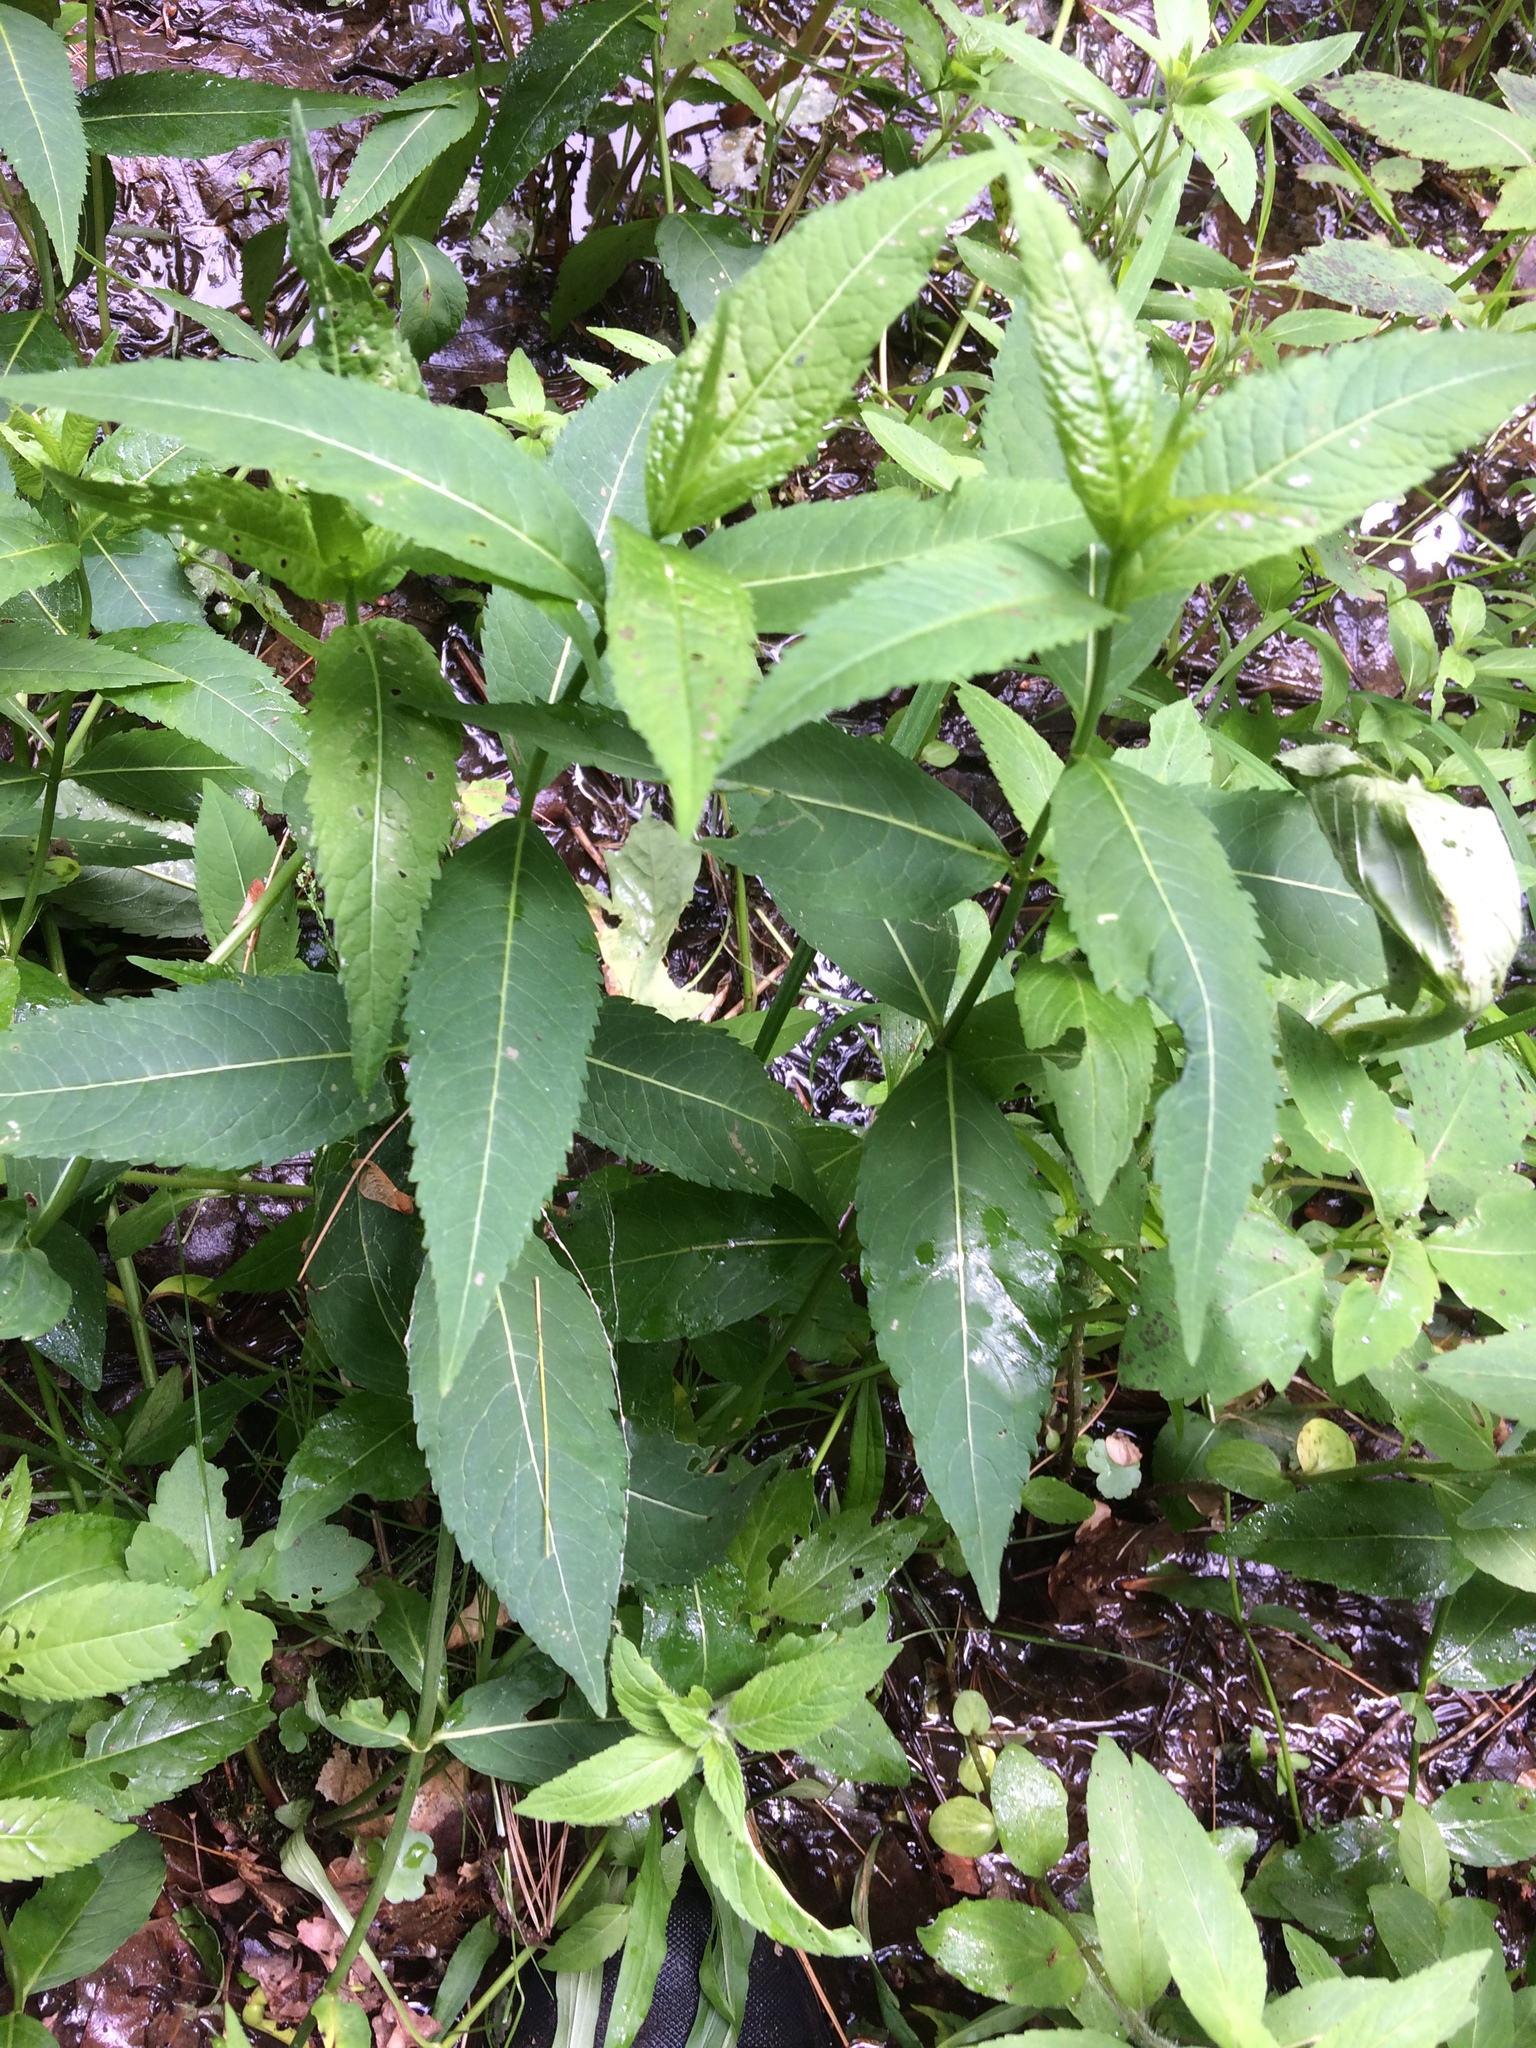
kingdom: Plantae
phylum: Tracheophyta
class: Magnoliopsida
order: Lamiales
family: Plantaginaceae
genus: Chelone
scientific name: Chelone glabra
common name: Snakehead
